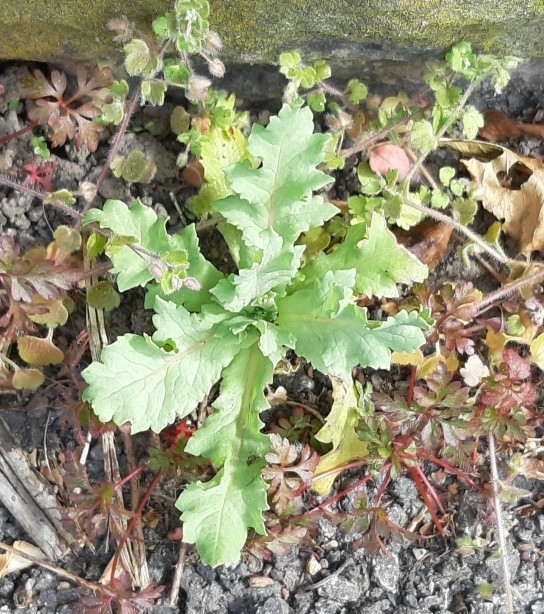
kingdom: Plantae
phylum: Tracheophyta
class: Magnoliopsida
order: Ranunculales
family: Papaveraceae
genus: Papaver
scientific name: Papaver somniferum
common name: Opium poppy
